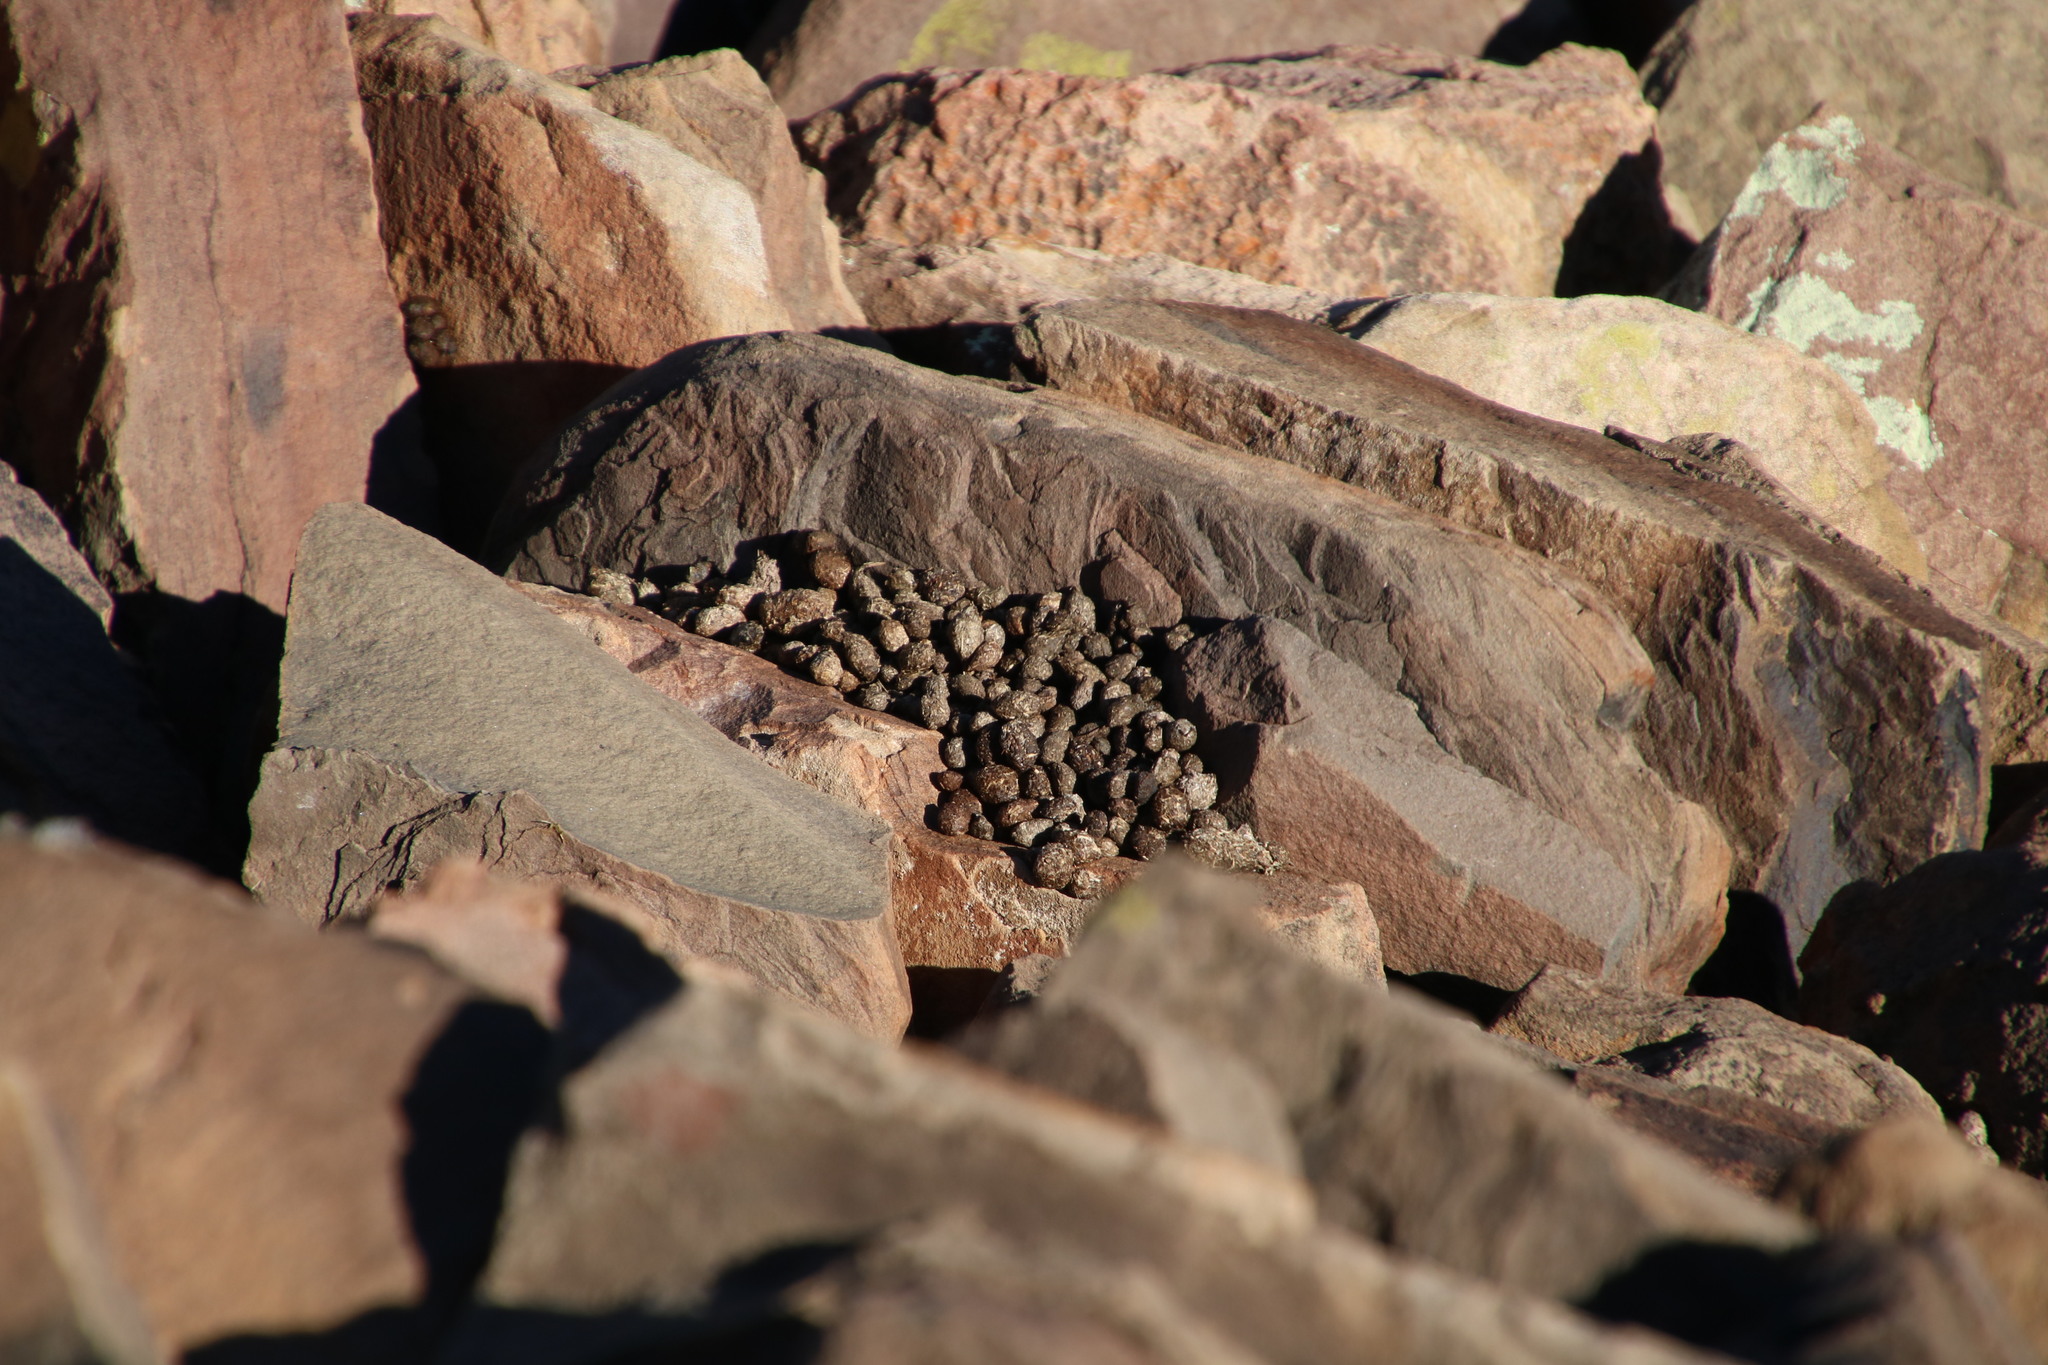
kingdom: Animalia
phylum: Chordata
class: Mammalia
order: Hyracoidea
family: Procaviidae
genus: Procavia
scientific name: Procavia capensis
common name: Rock hyrax
